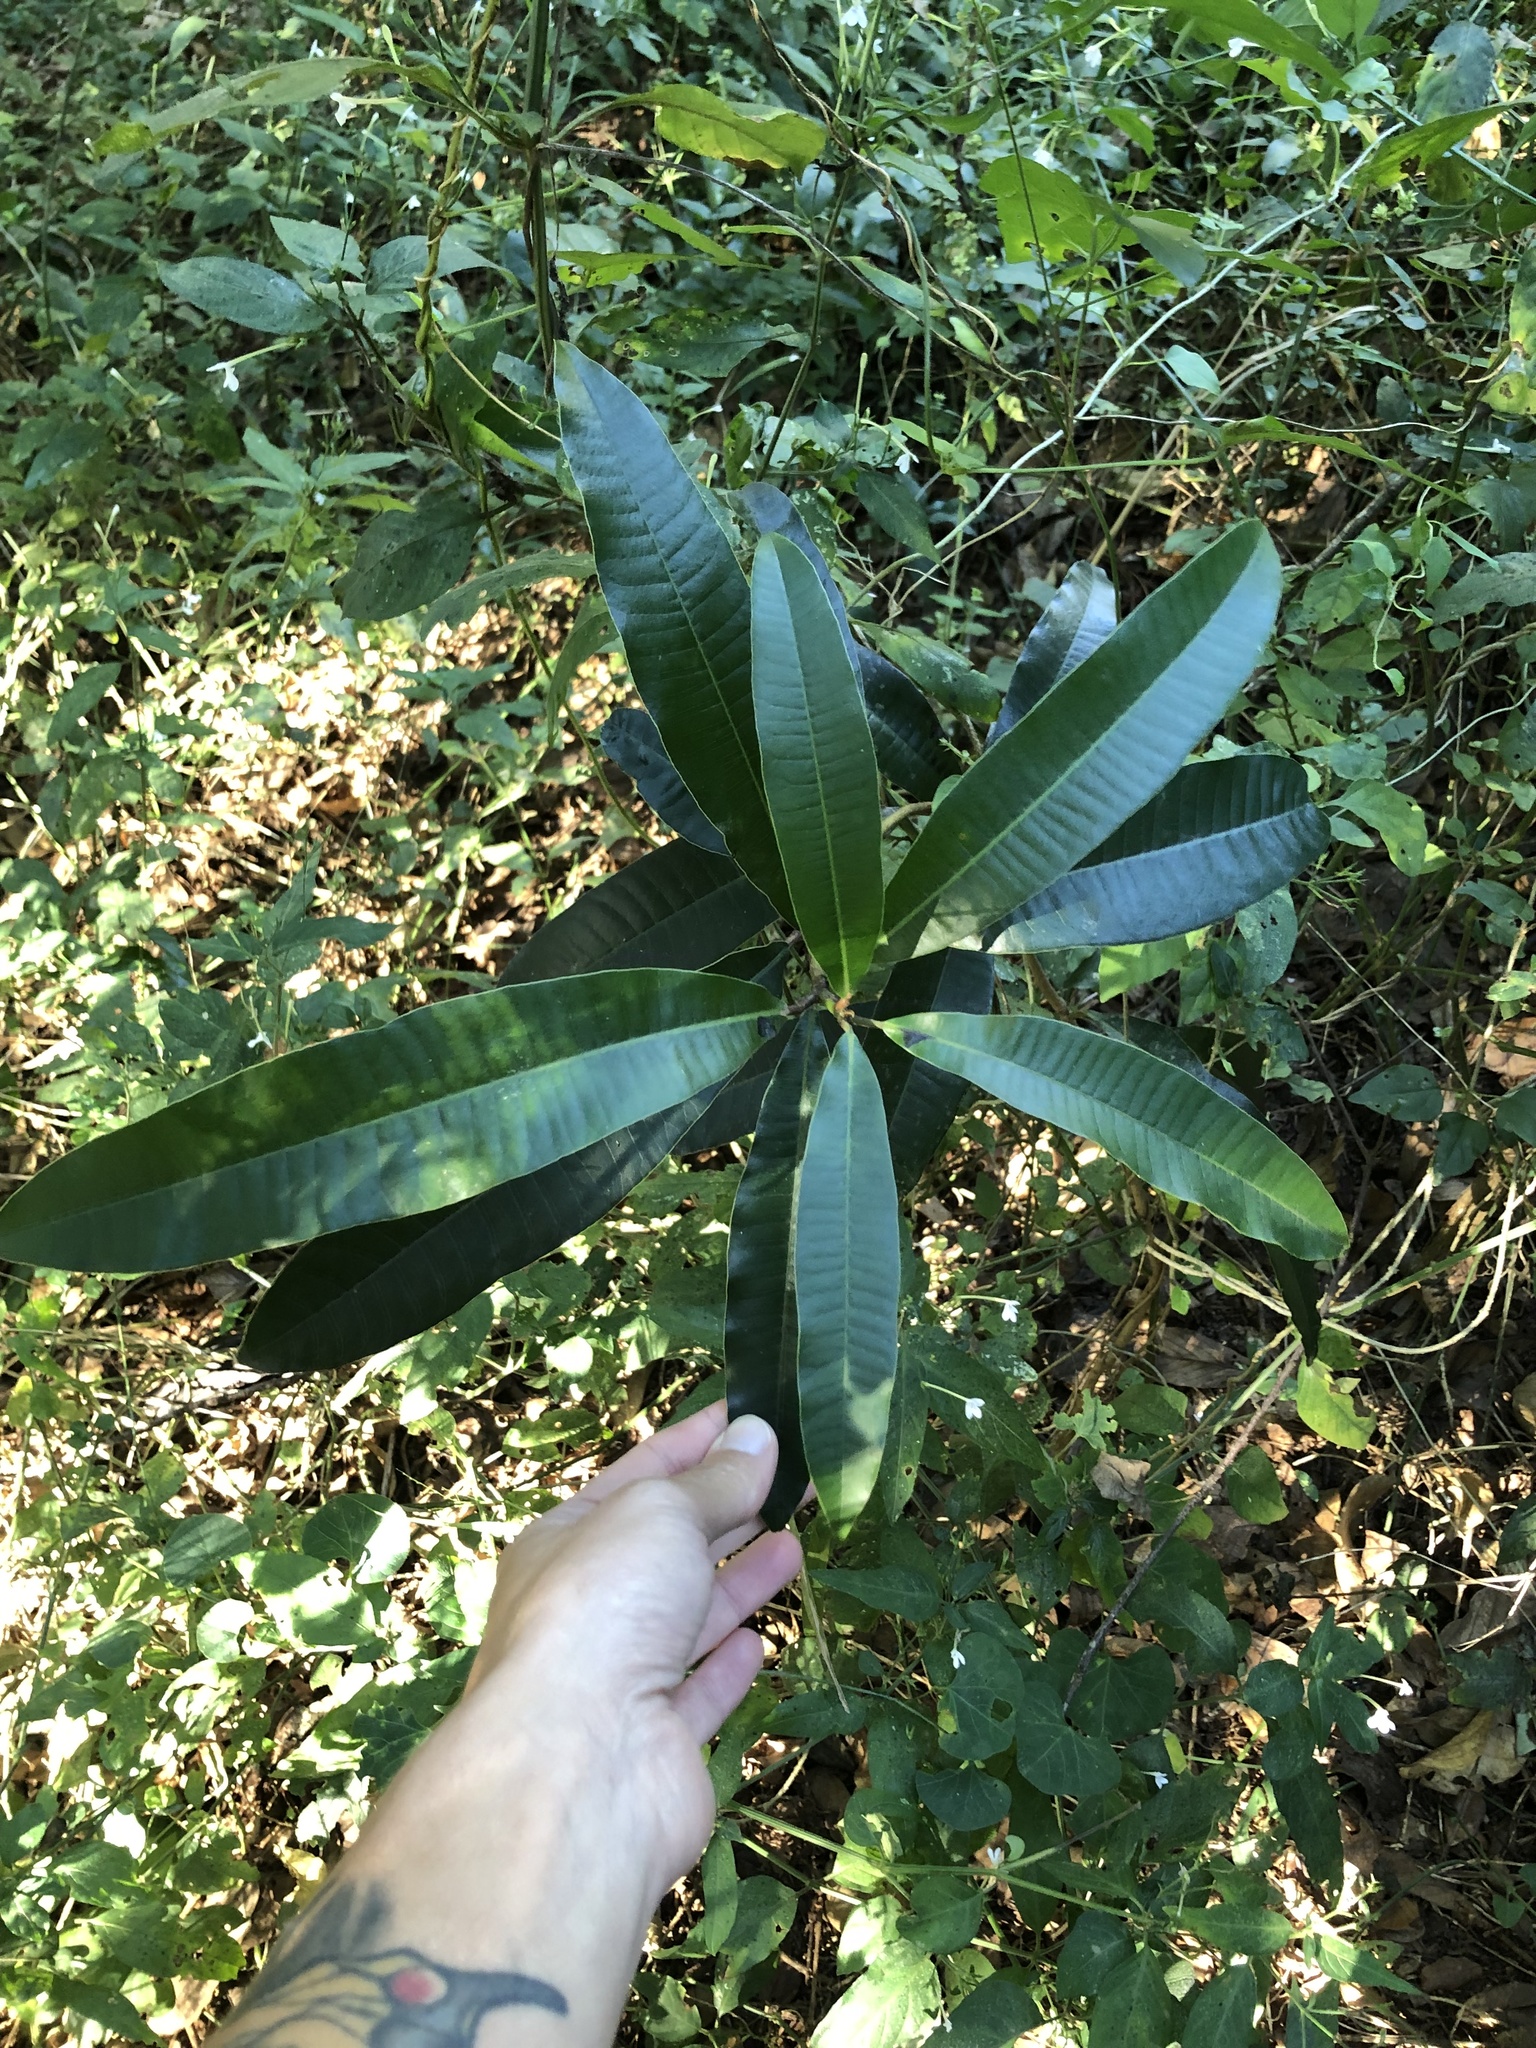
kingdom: Plantae
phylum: Tracheophyta
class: Magnoliopsida
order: Sapindales
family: Anacardiaceae
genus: Protorhus
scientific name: Protorhus longifolia
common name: Red-beech
